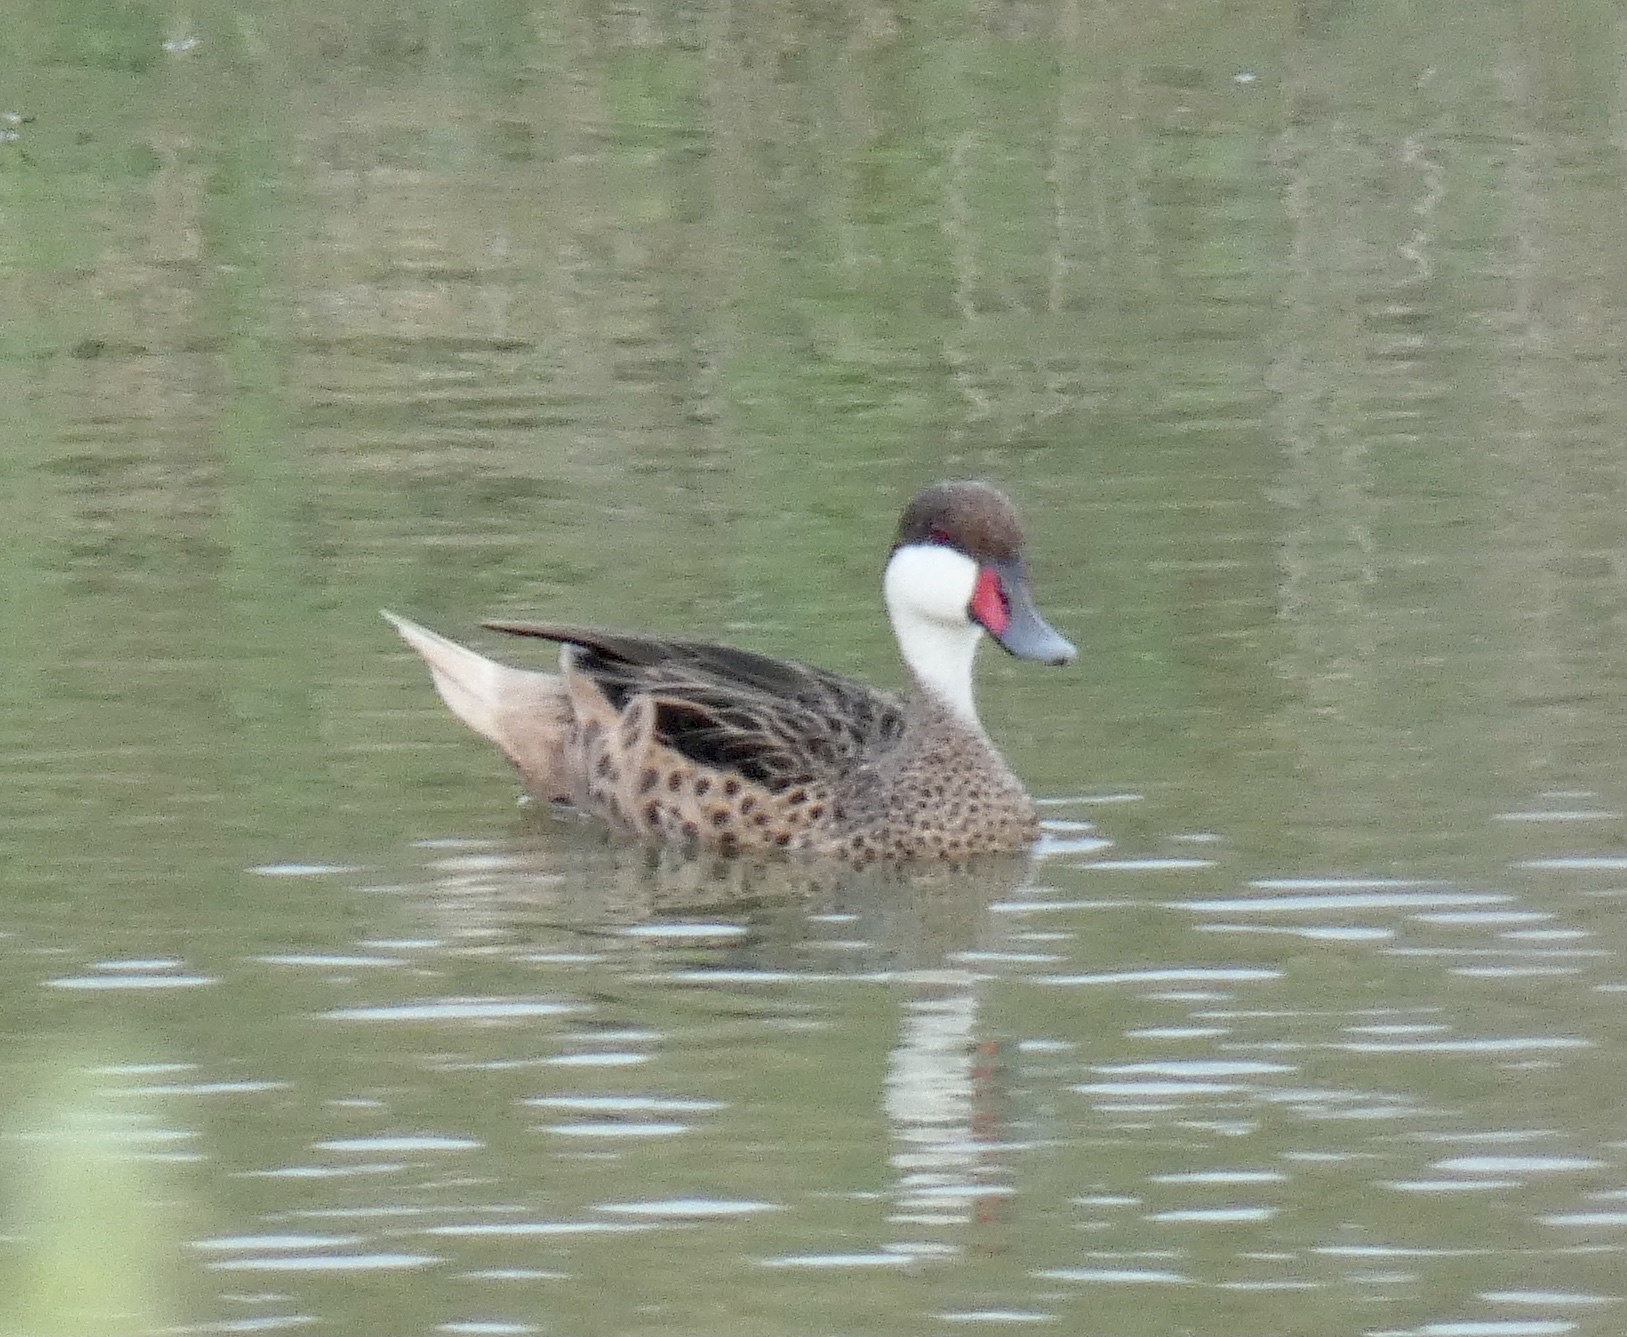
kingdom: Animalia
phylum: Chordata
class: Aves
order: Anseriformes
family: Anatidae
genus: Anas
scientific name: Anas bahamensis
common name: White-cheeked pintail
